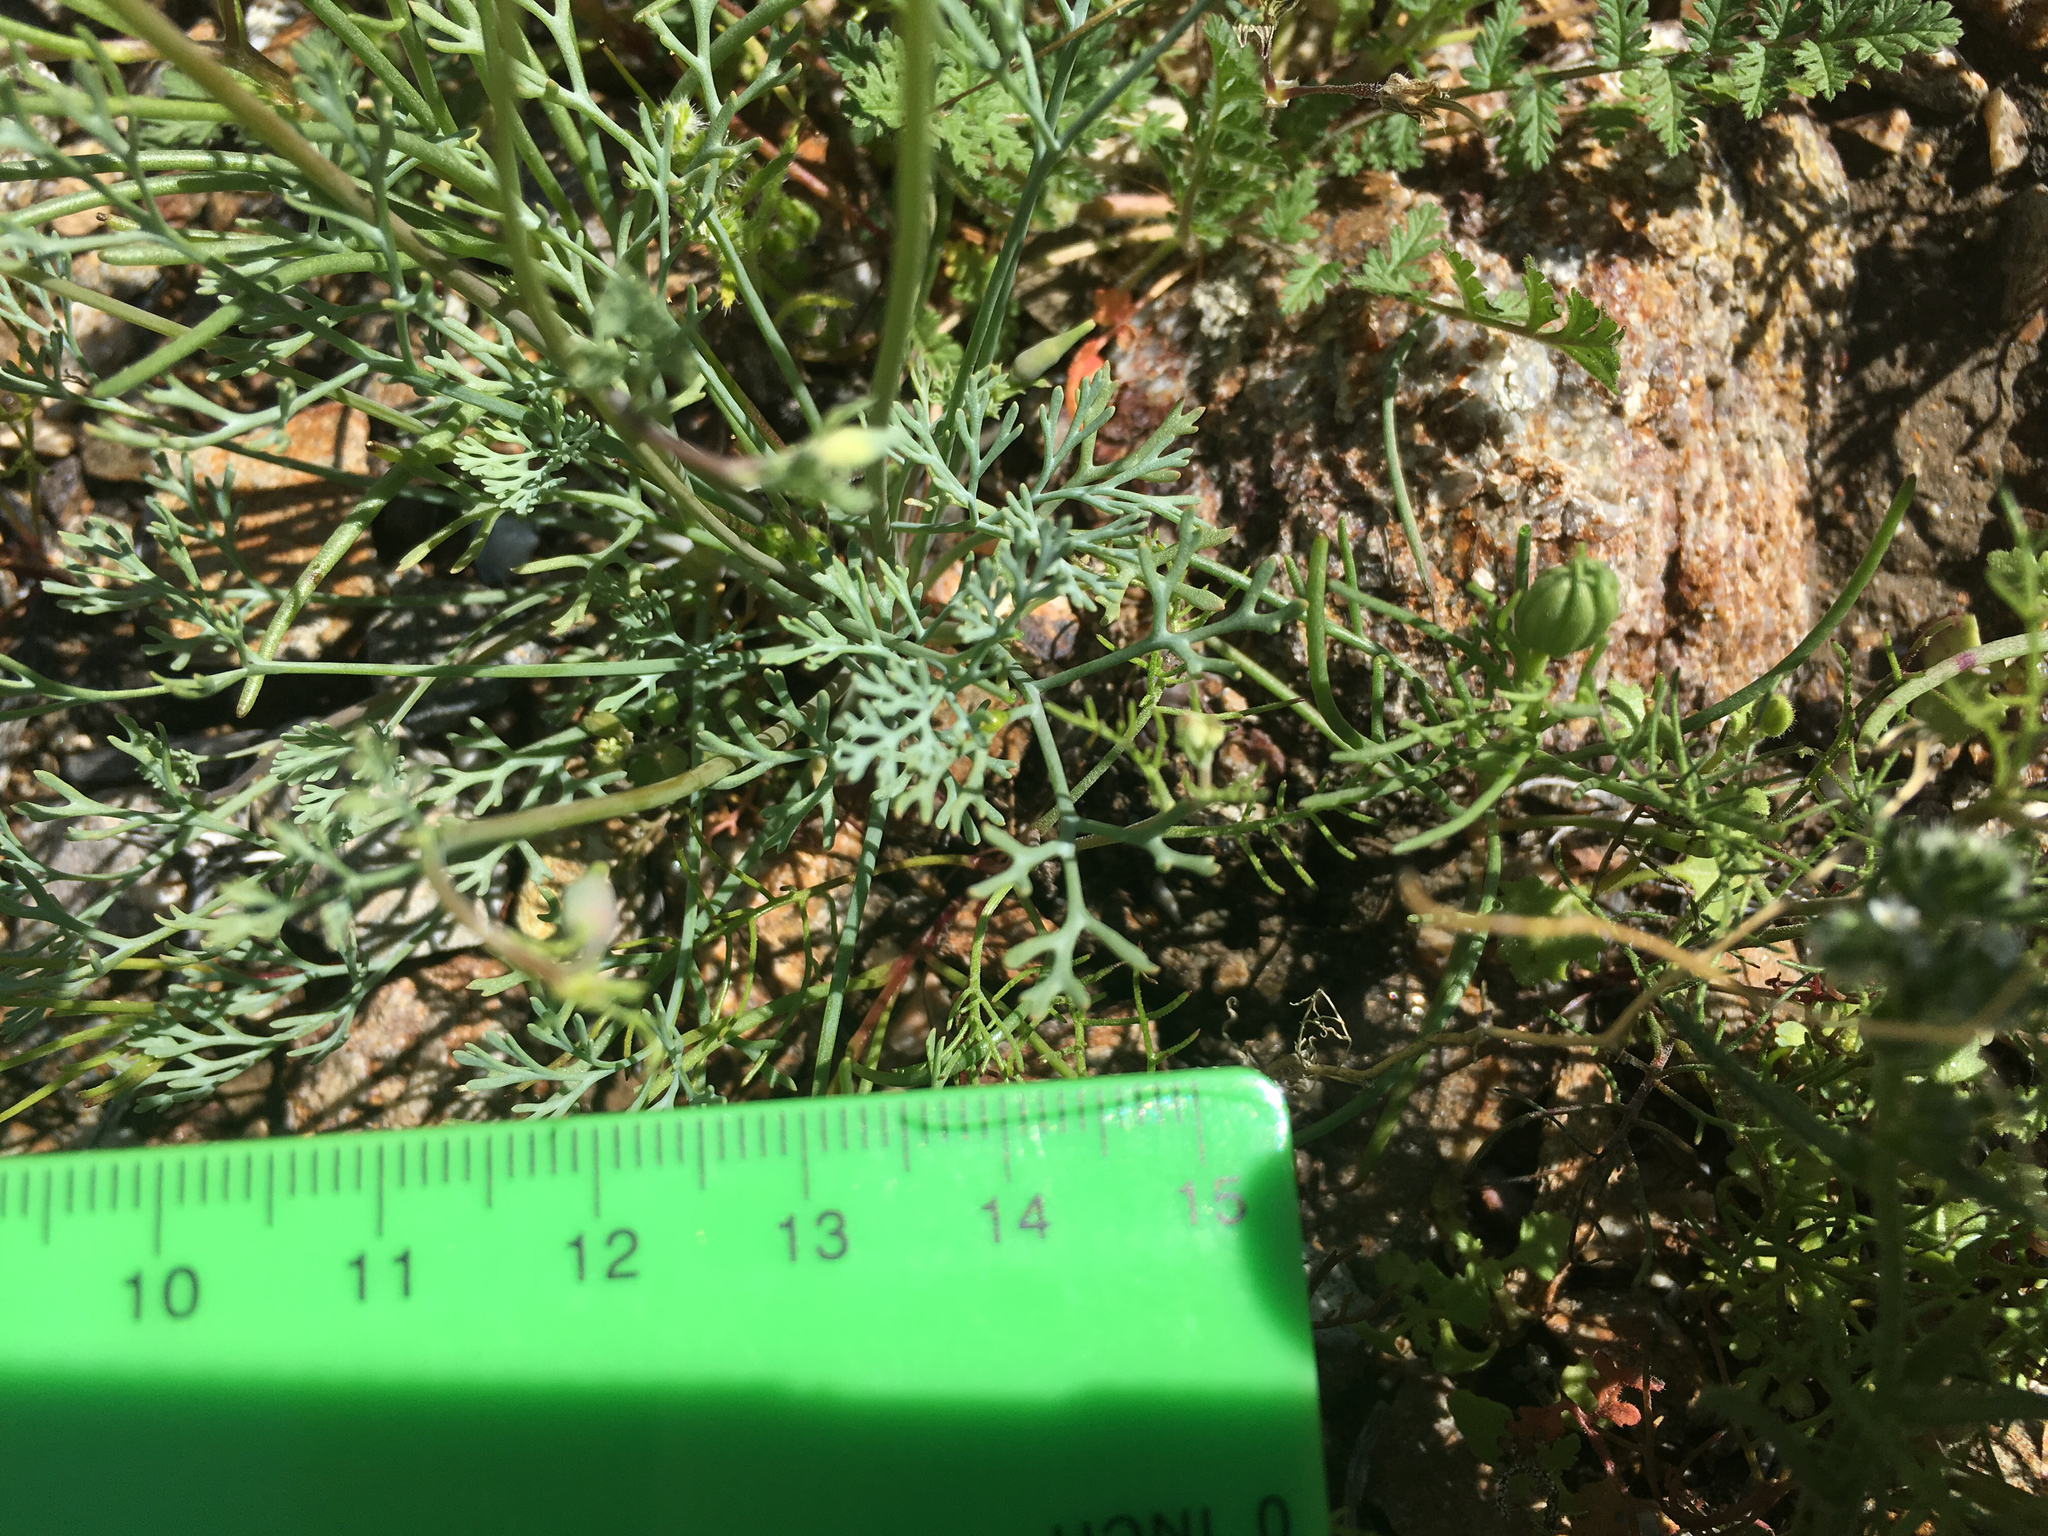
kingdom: Plantae
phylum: Tracheophyta
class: Magnoliopsida
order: Ranunculales
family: Papaveraceae
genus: Eschscholzia
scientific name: Eschscholzia parishii
